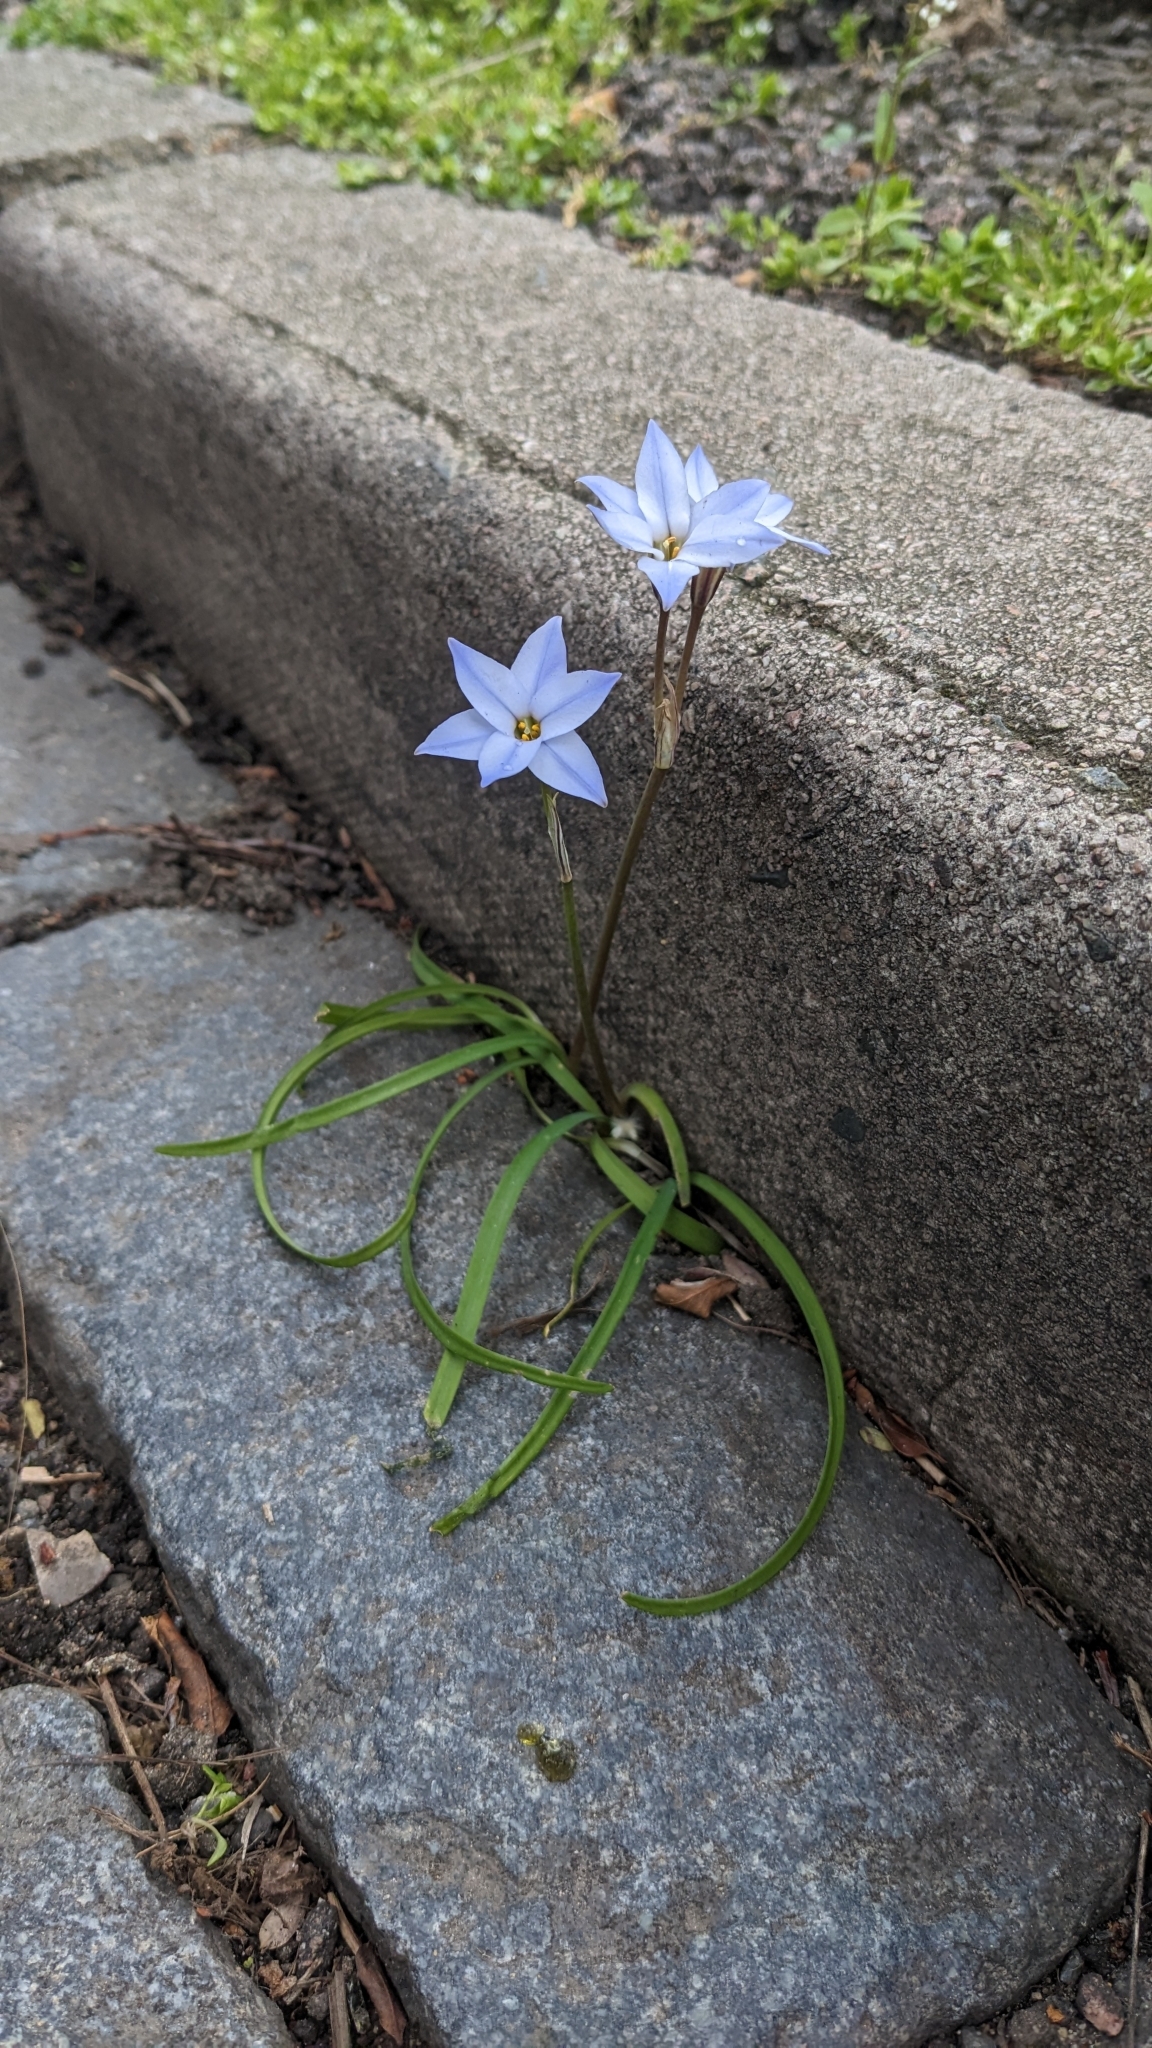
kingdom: Plantae
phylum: Tracheophyta
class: Liliopsida
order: Asparagales
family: Amaryllidaceae
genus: Ipheion
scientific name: Ipheion uniflorum
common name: Spring starflower
